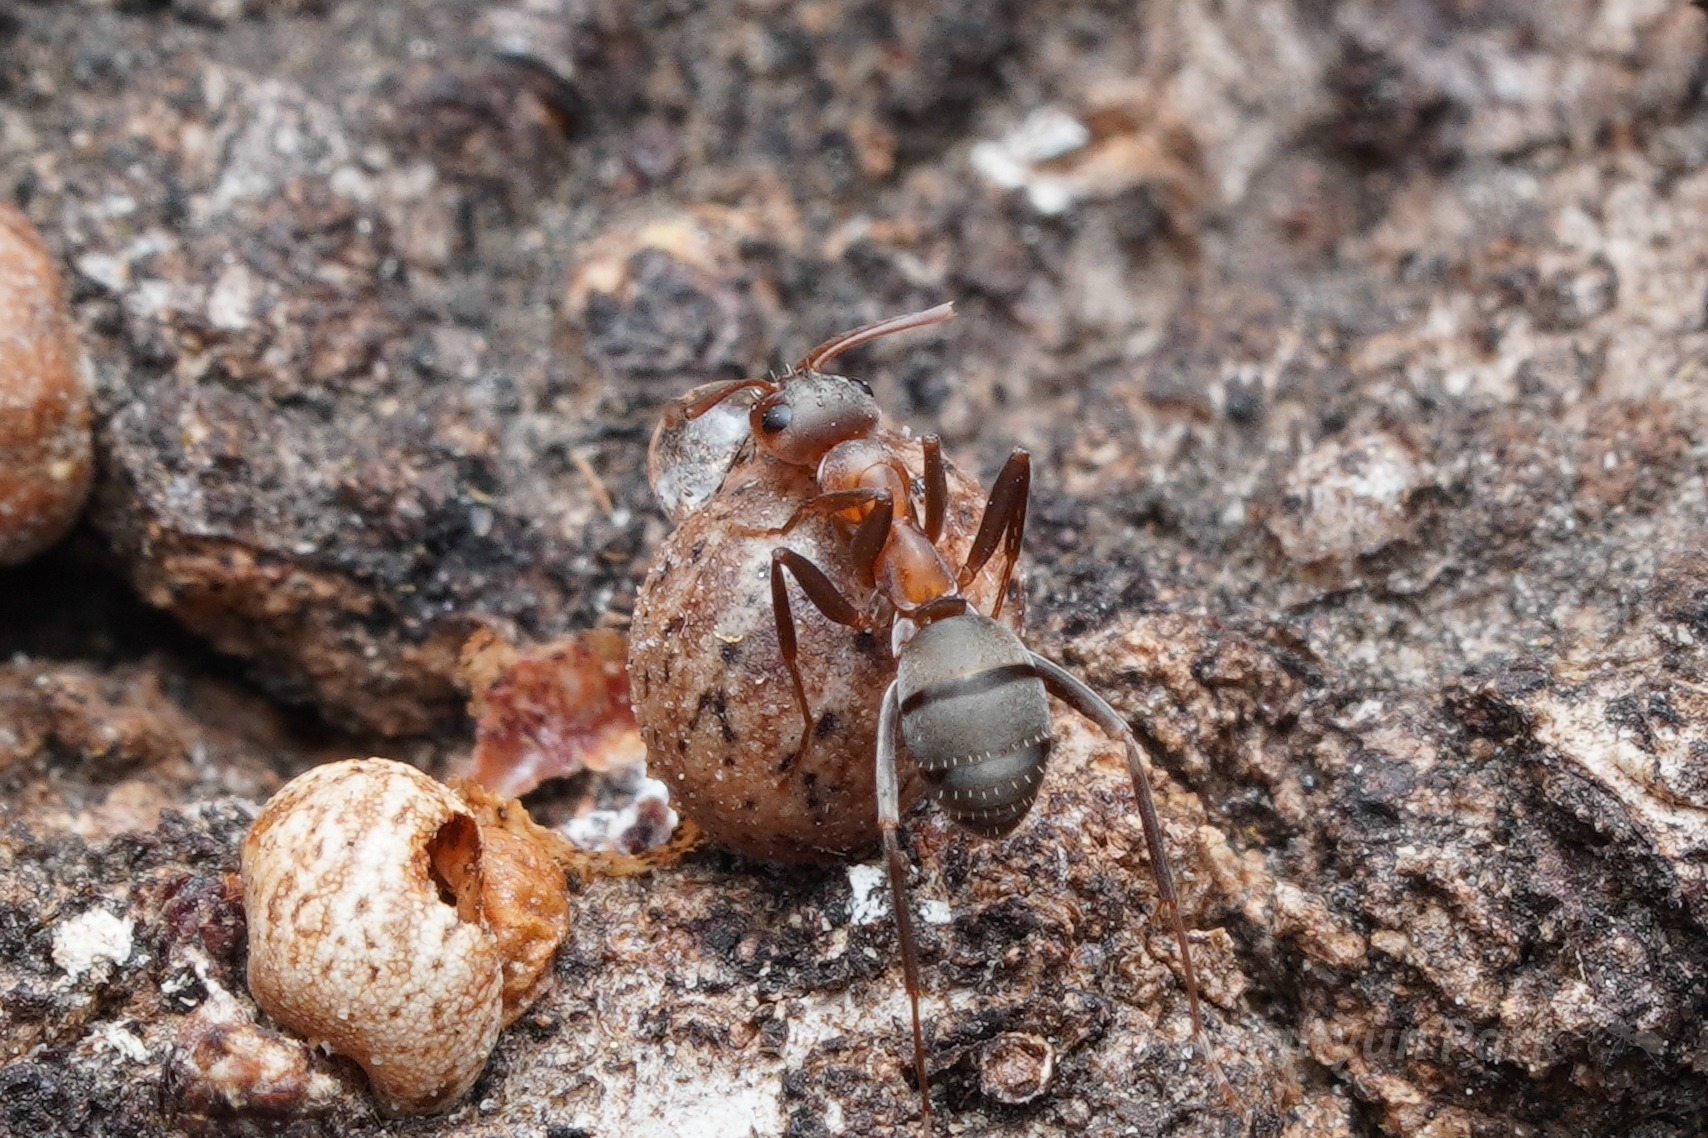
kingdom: Animalia
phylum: Arthropoda
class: Insecta
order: Hymenoptera
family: Formicidae
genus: Formica
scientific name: Formica moki
